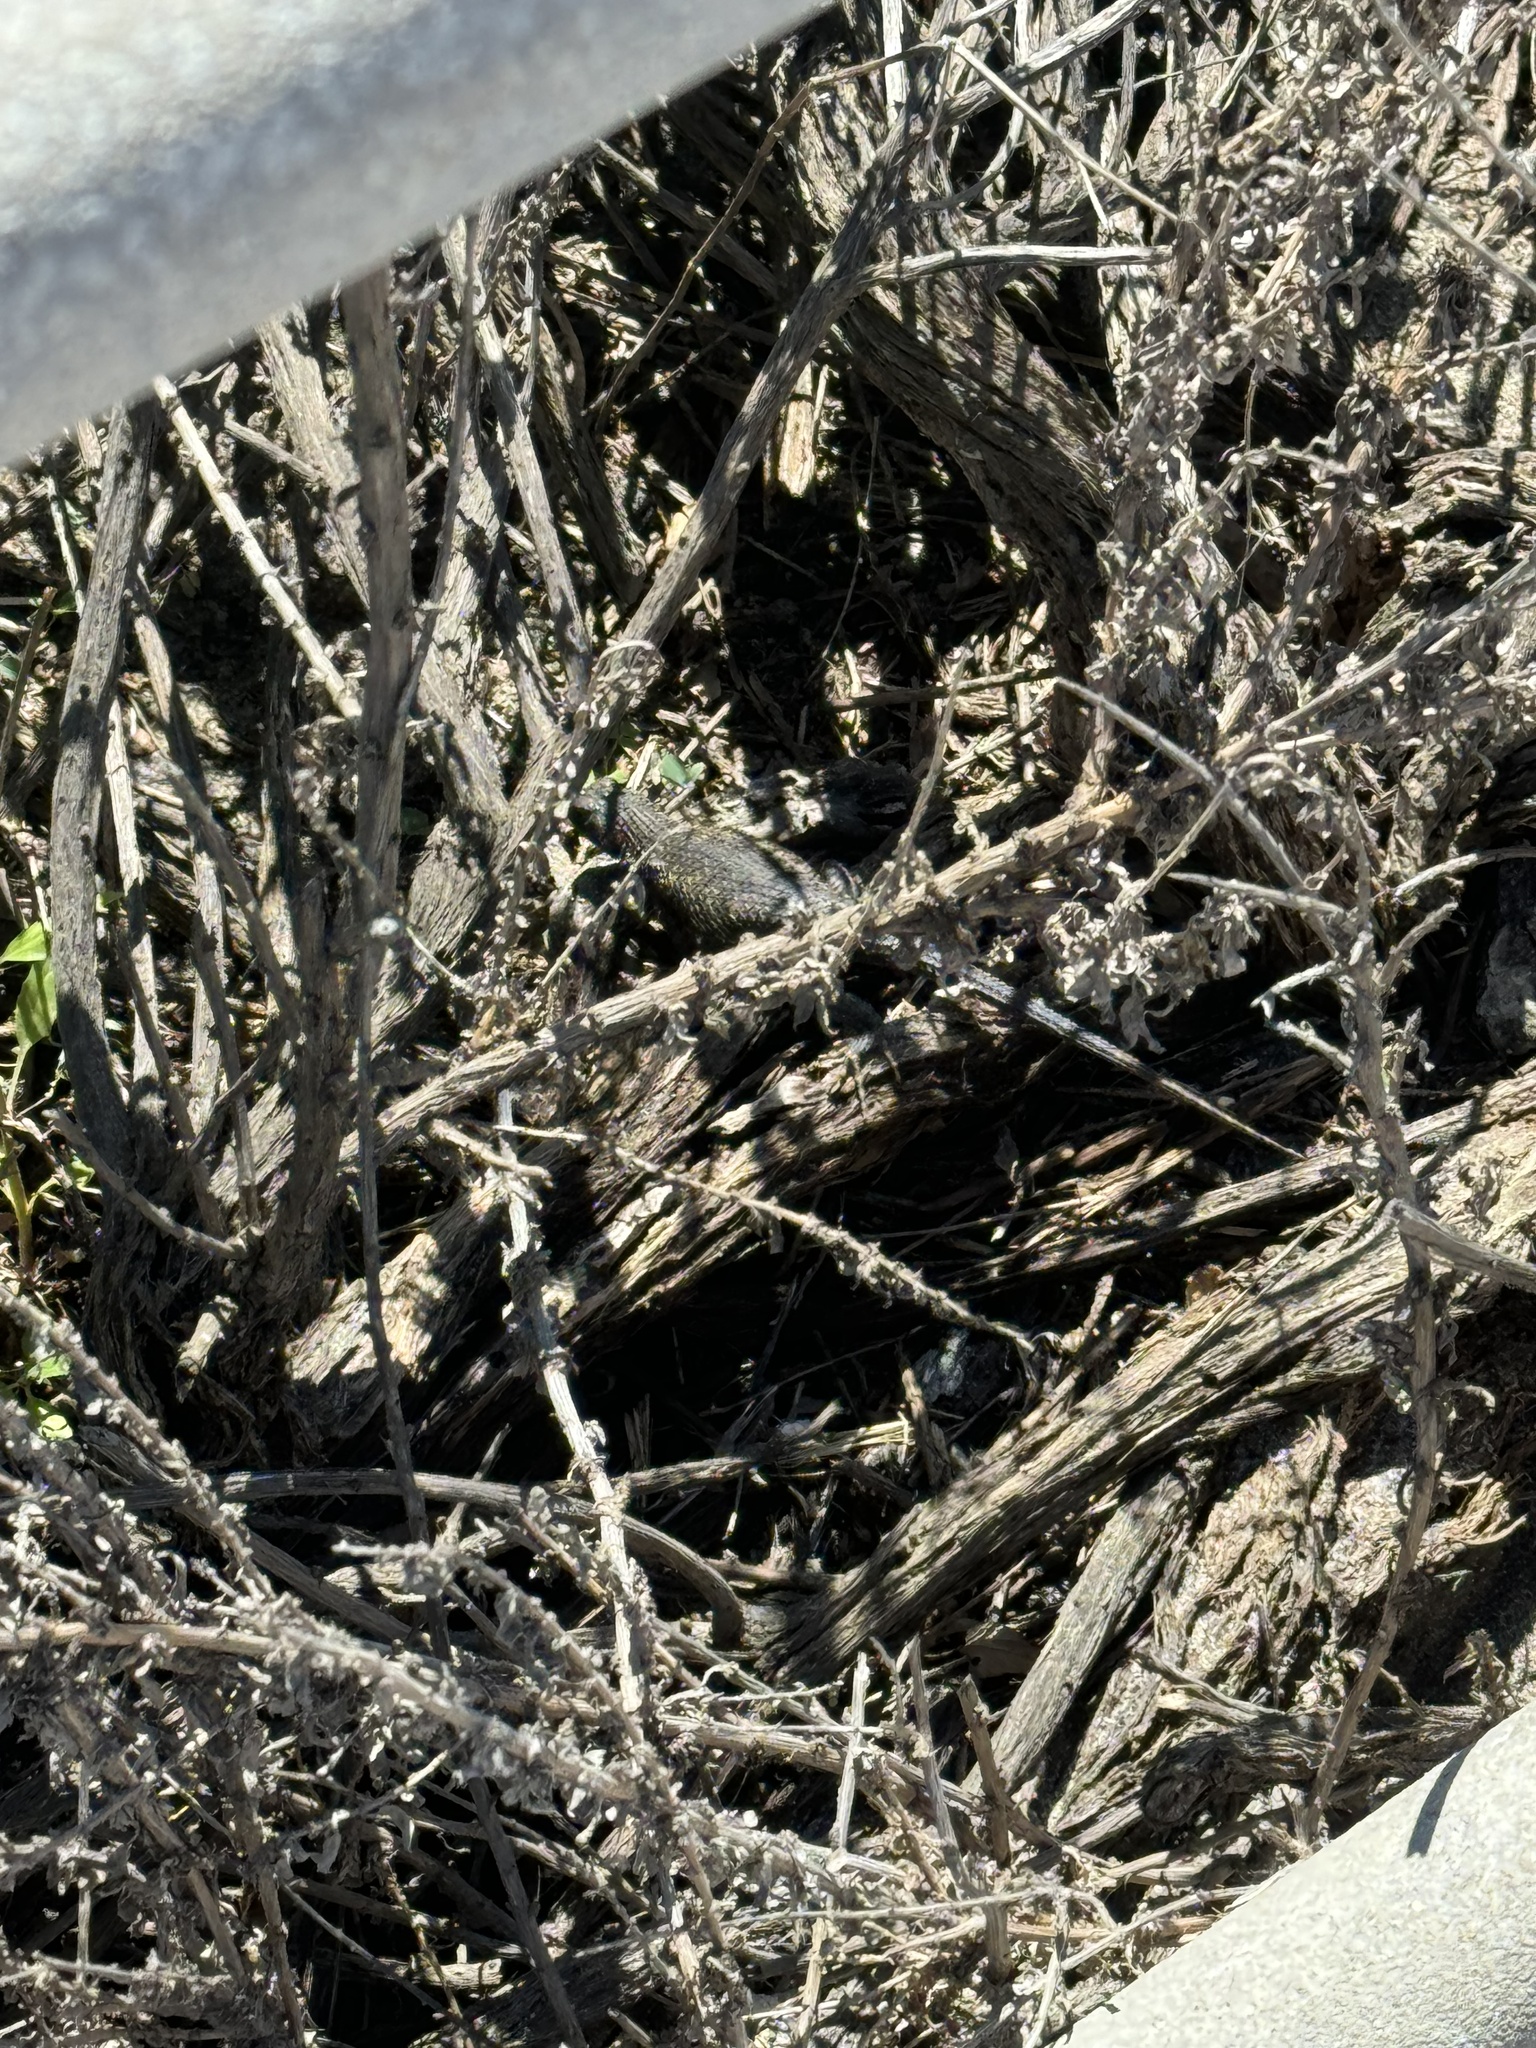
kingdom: Animalia
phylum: Chordata
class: Squamata
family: Phrynosomatidae
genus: Sceloporus
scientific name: Sceloporus occidentalis
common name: Western fence lizard
